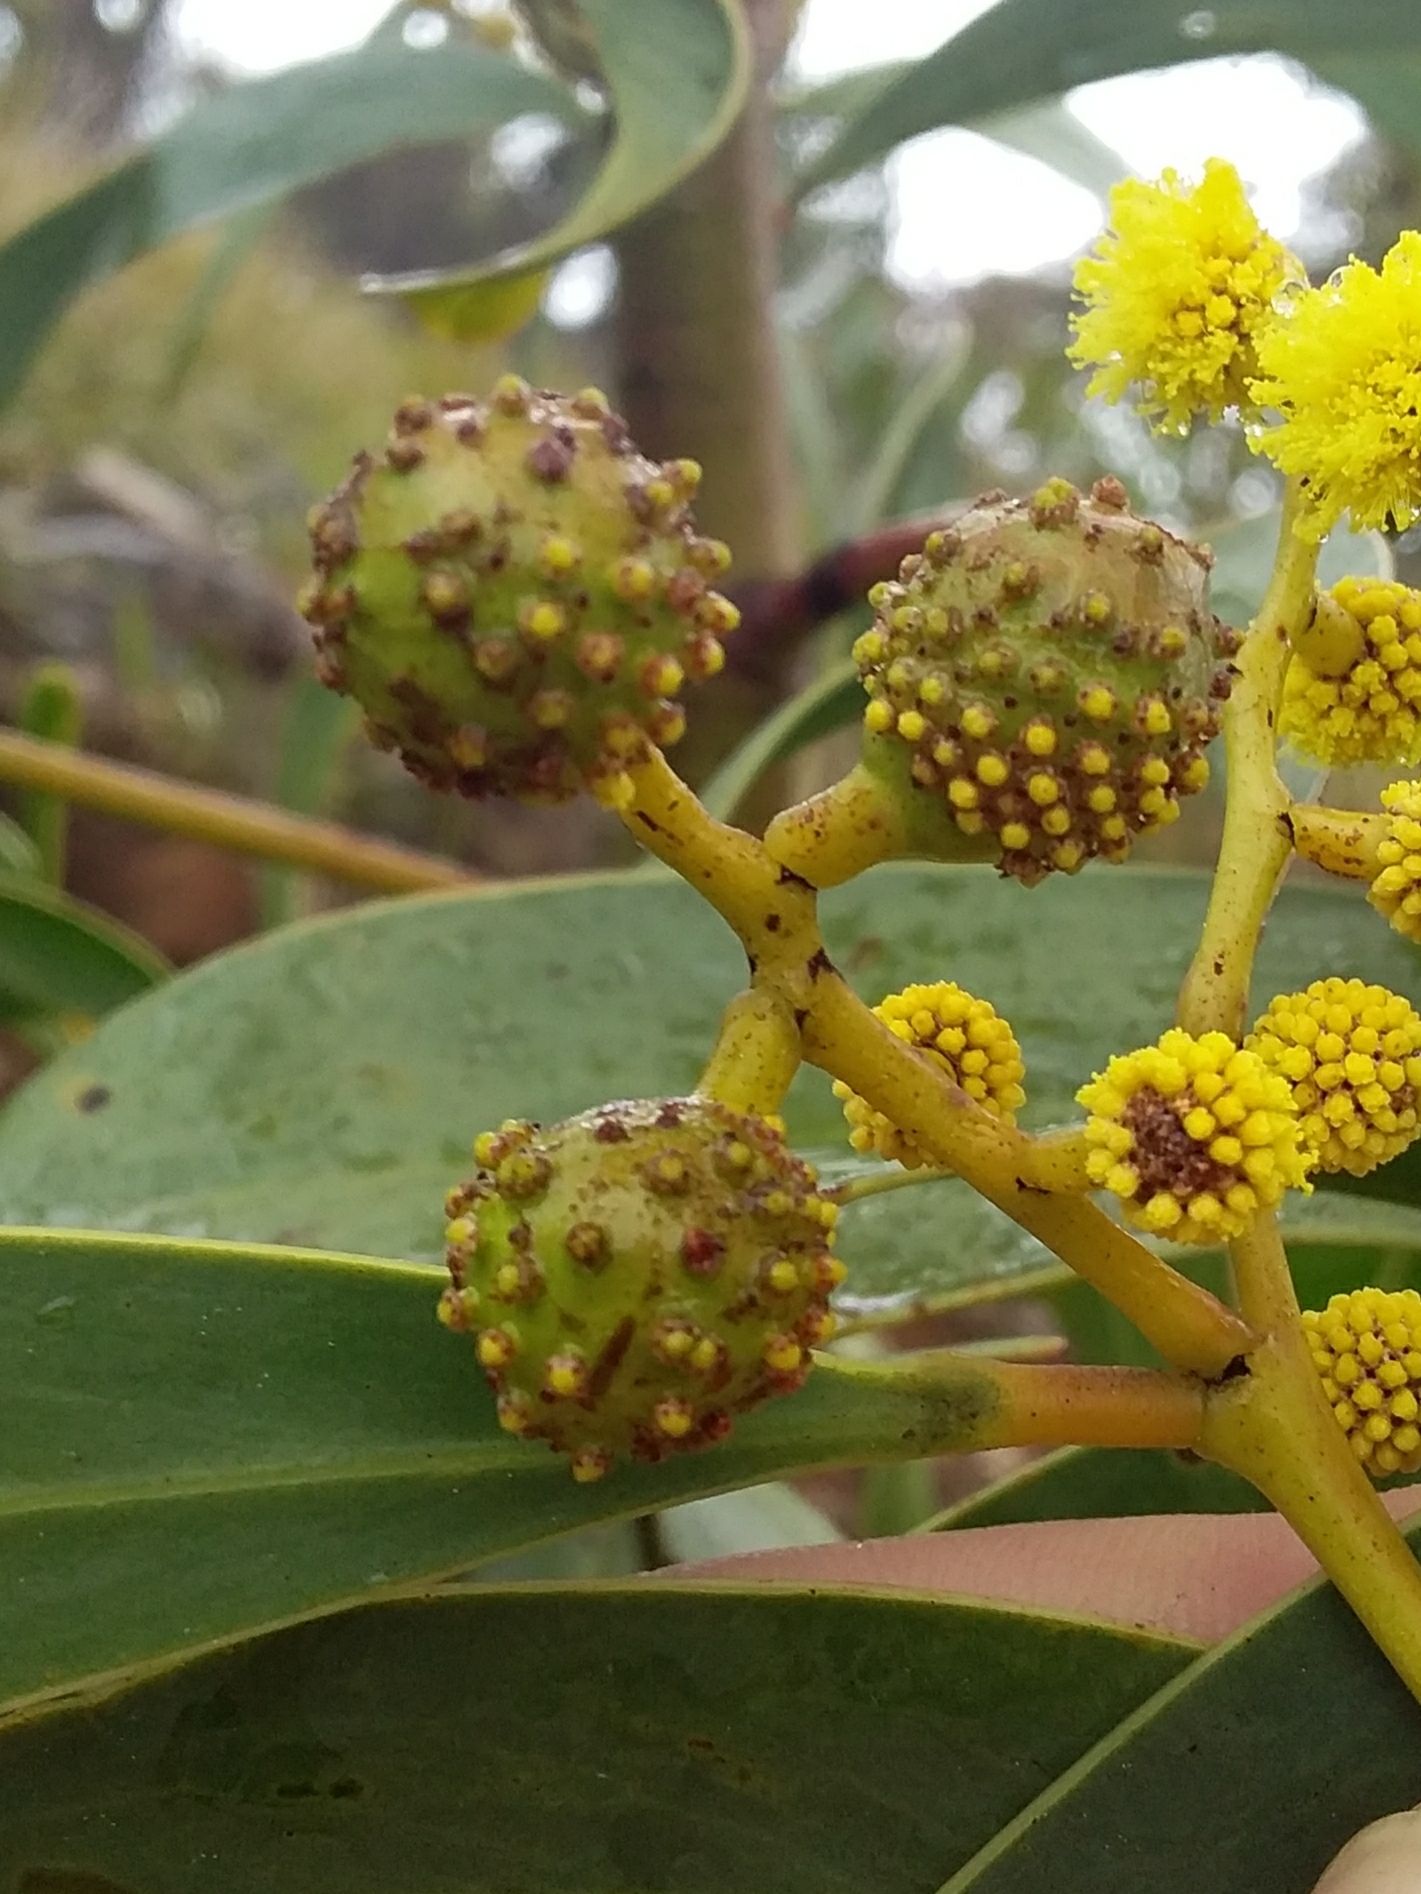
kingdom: Animalia
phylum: Arthropoda
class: Insecta
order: Hymenoptera
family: Pteromalidae
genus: Trichilogaster
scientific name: Trichilogaster signiventris
